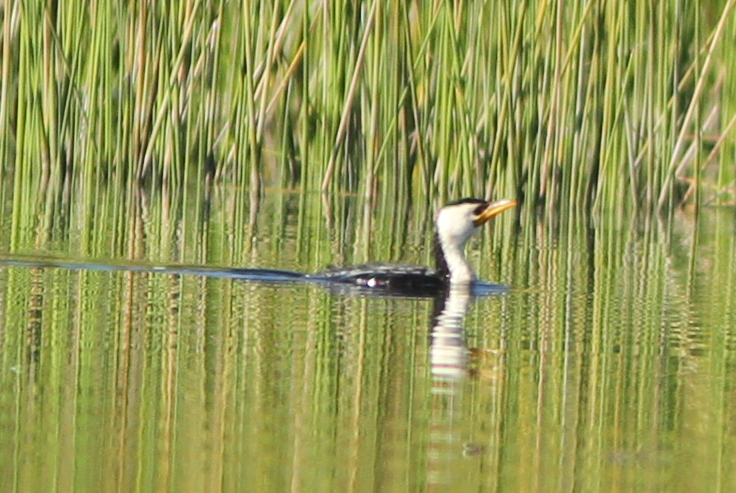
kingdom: Animalia
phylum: Chordata
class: Aves
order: Suliformes
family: Phalacrocoracidae
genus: Microcarbo
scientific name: Microcarbo melanoleucos
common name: Little pied cormorant
